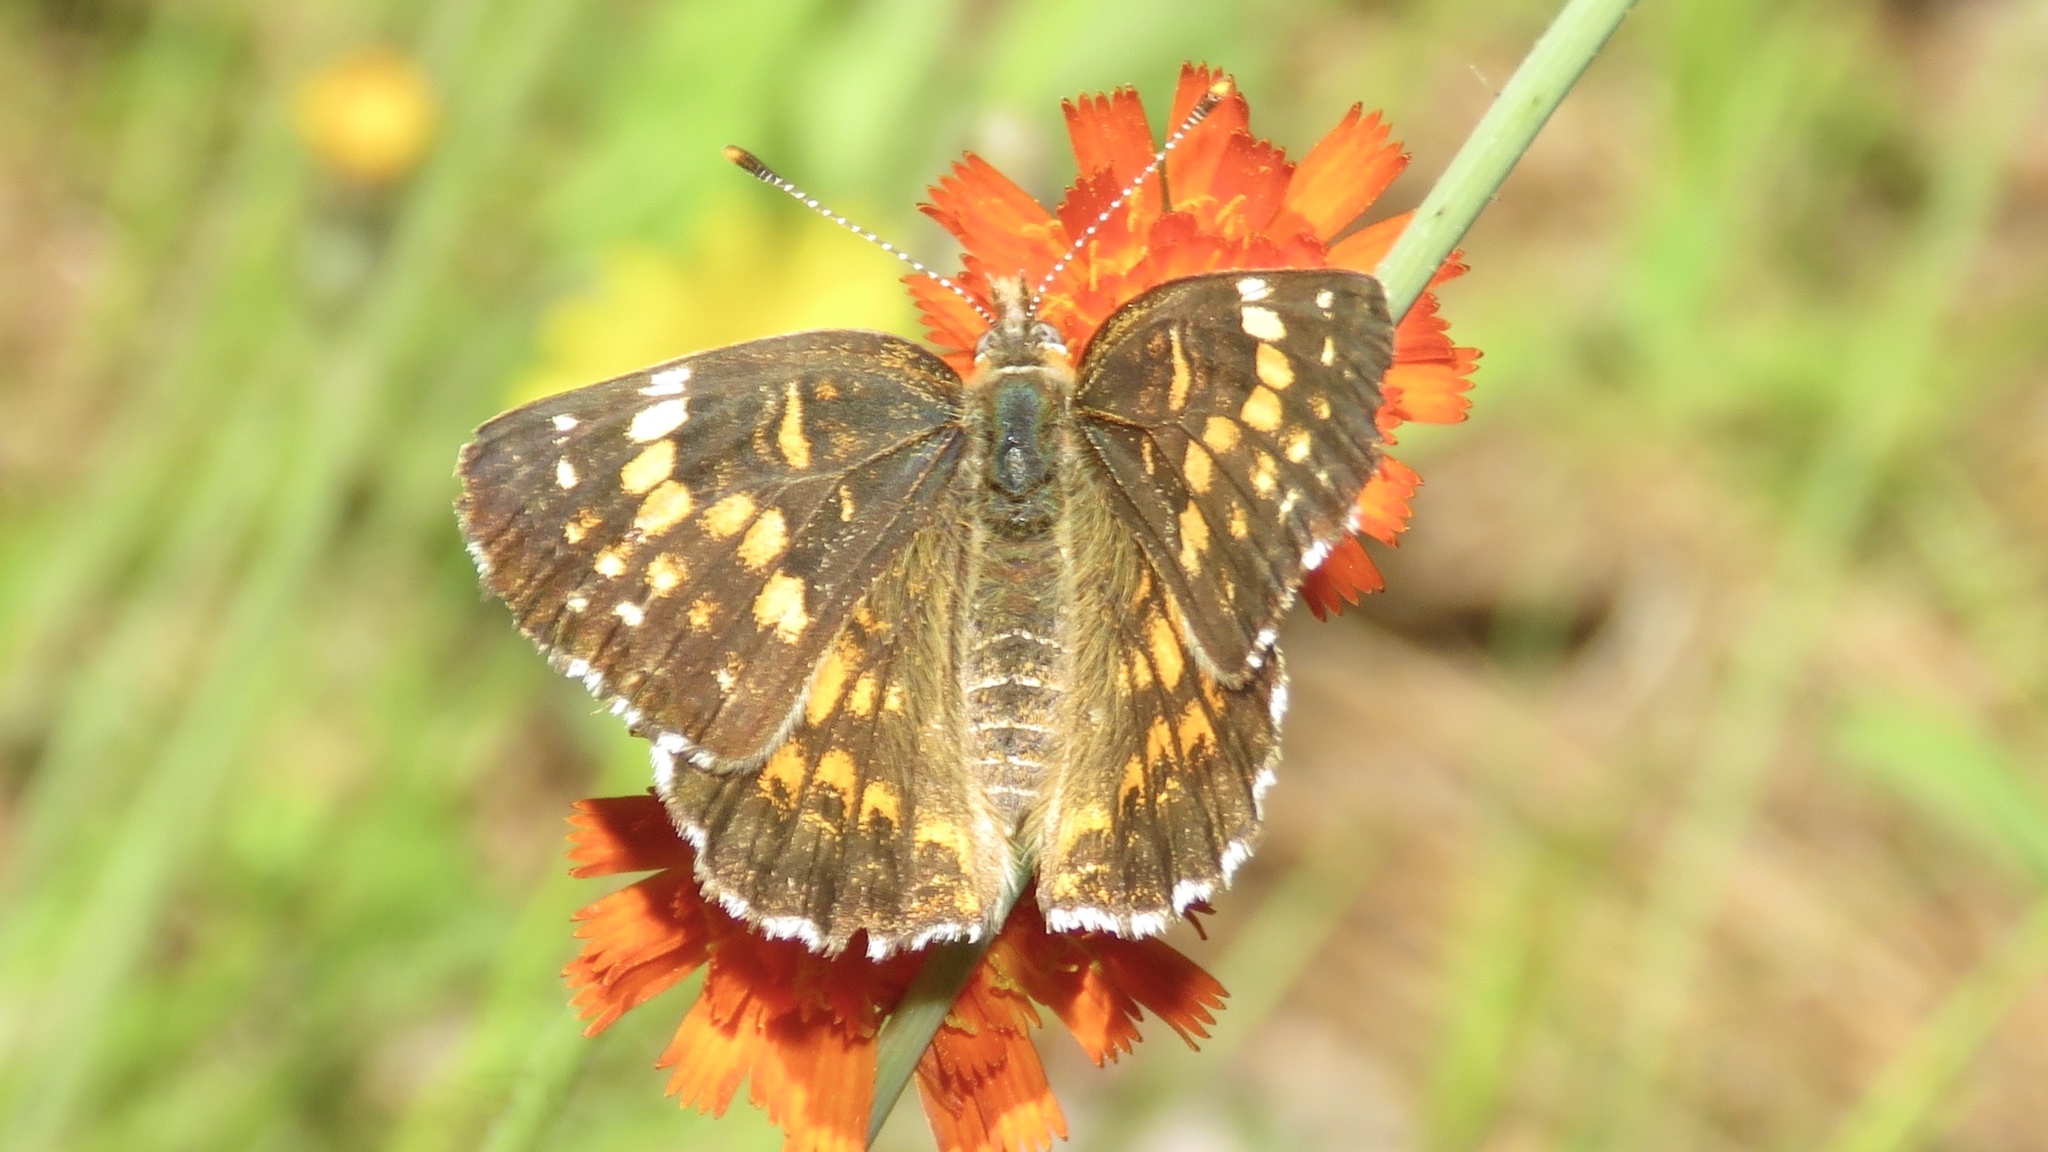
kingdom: Animalia
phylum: Arthropoda
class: Insecta
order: Lepidoptera
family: Nymphalidae
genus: Chlosyne
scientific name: Chlosyne harrisii
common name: Harris's checkerspot
